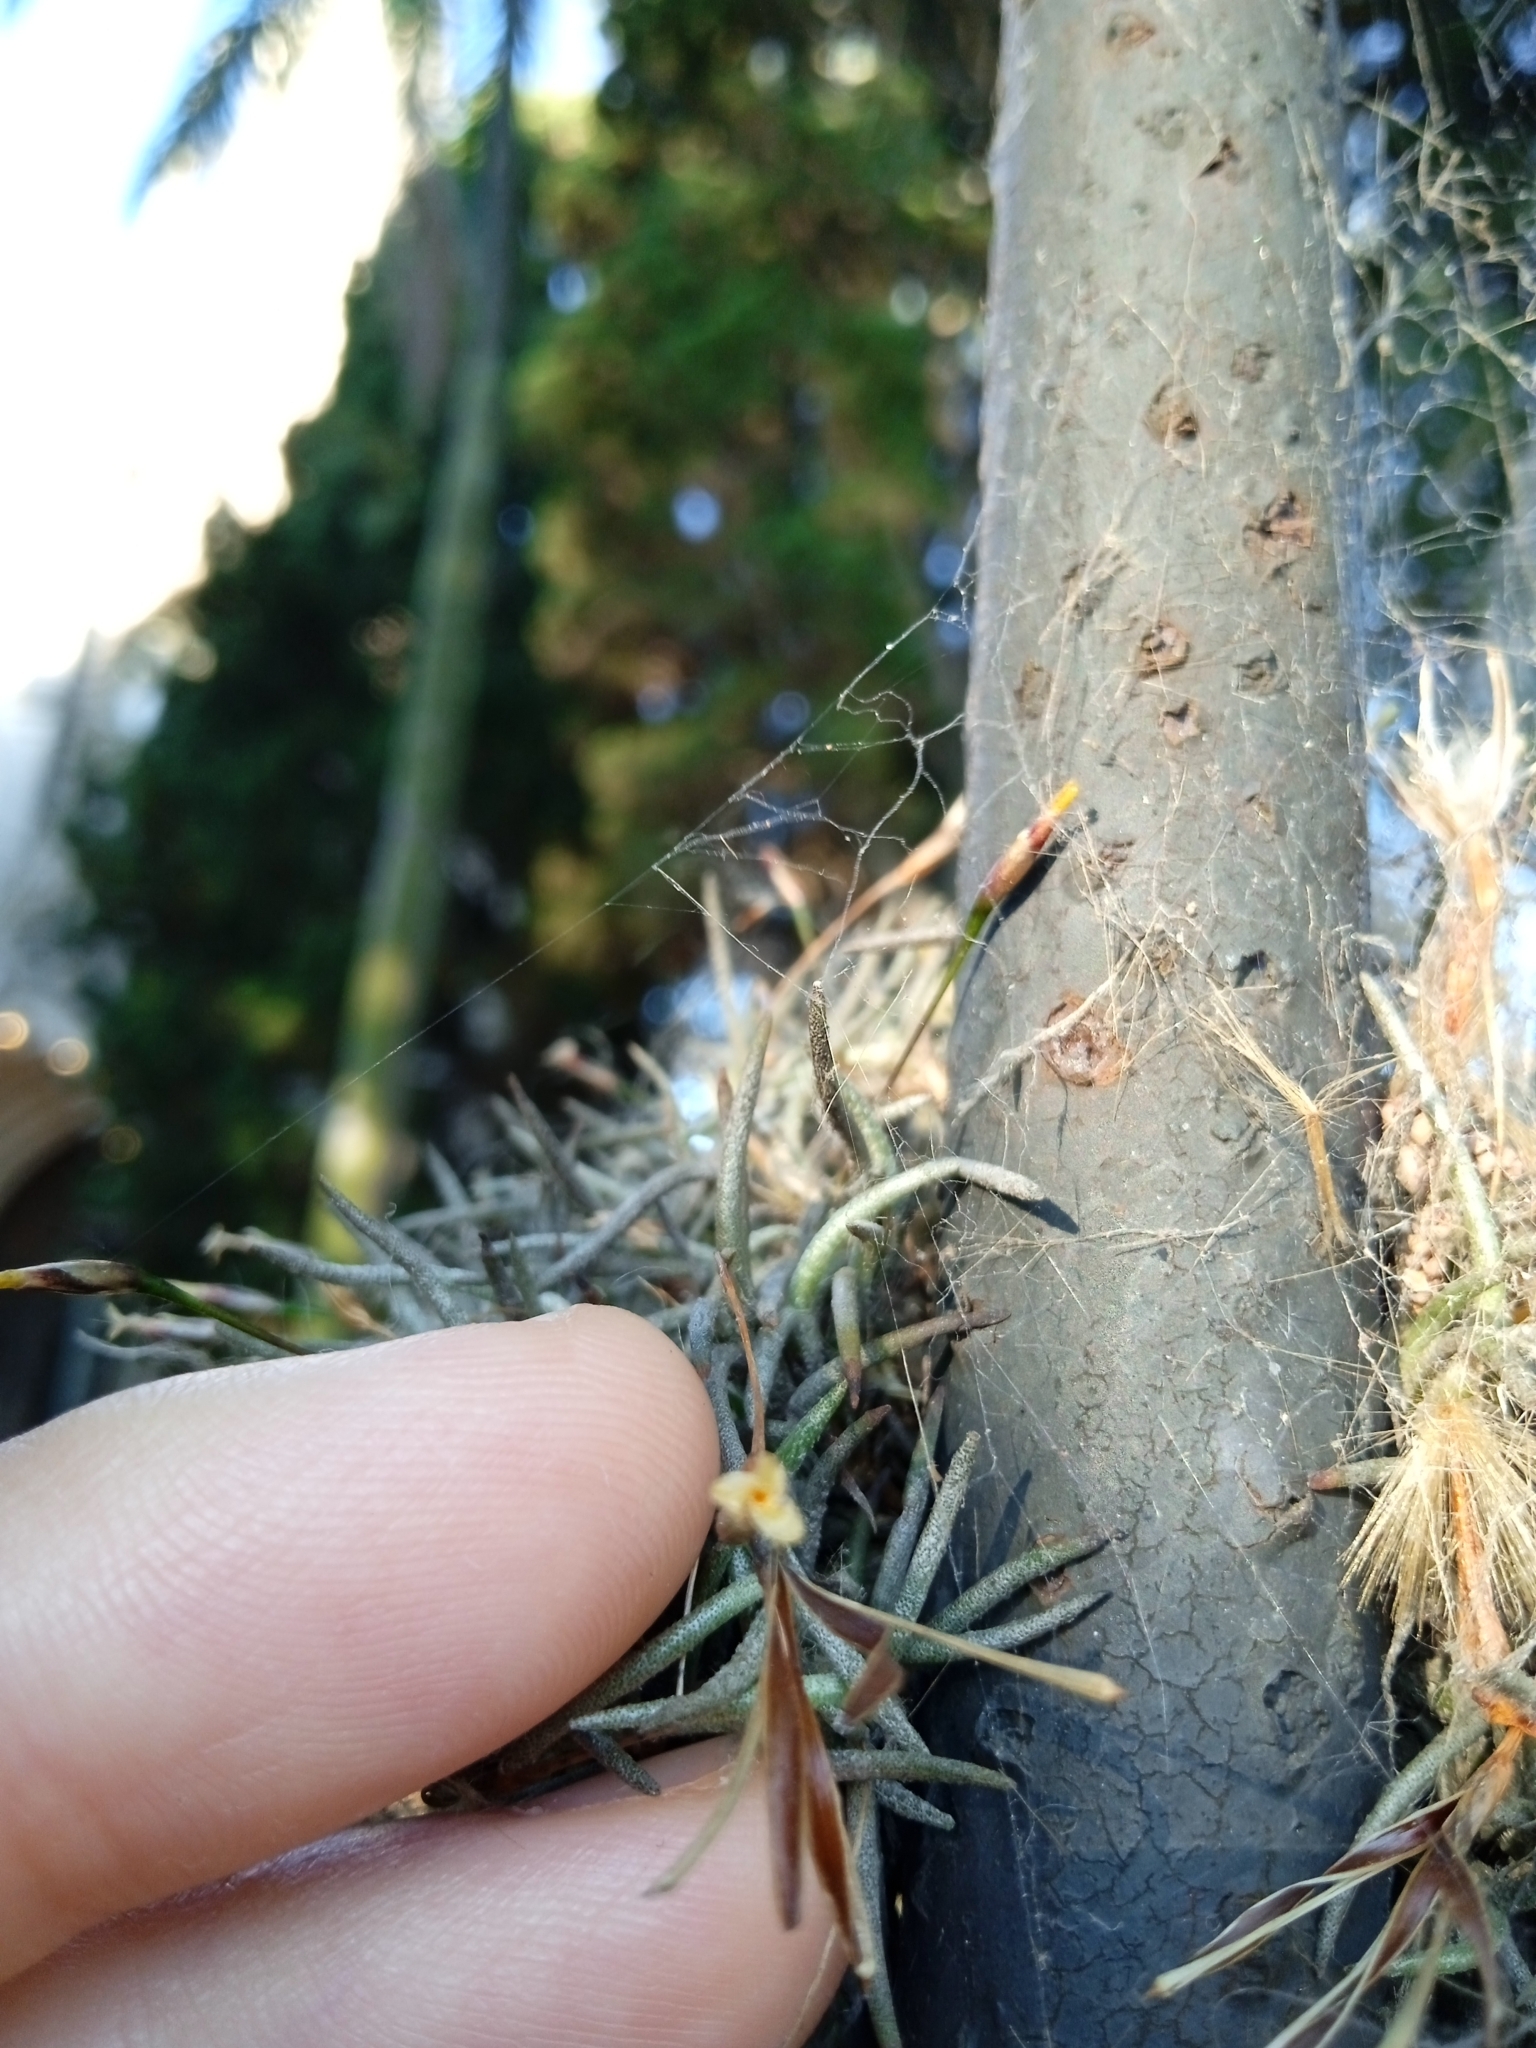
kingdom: Plantae
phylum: Tracheophyta
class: Liliopsida
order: Poales
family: Bromeliaceae
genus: Tillandsia
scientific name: Tillandsia capillaris
